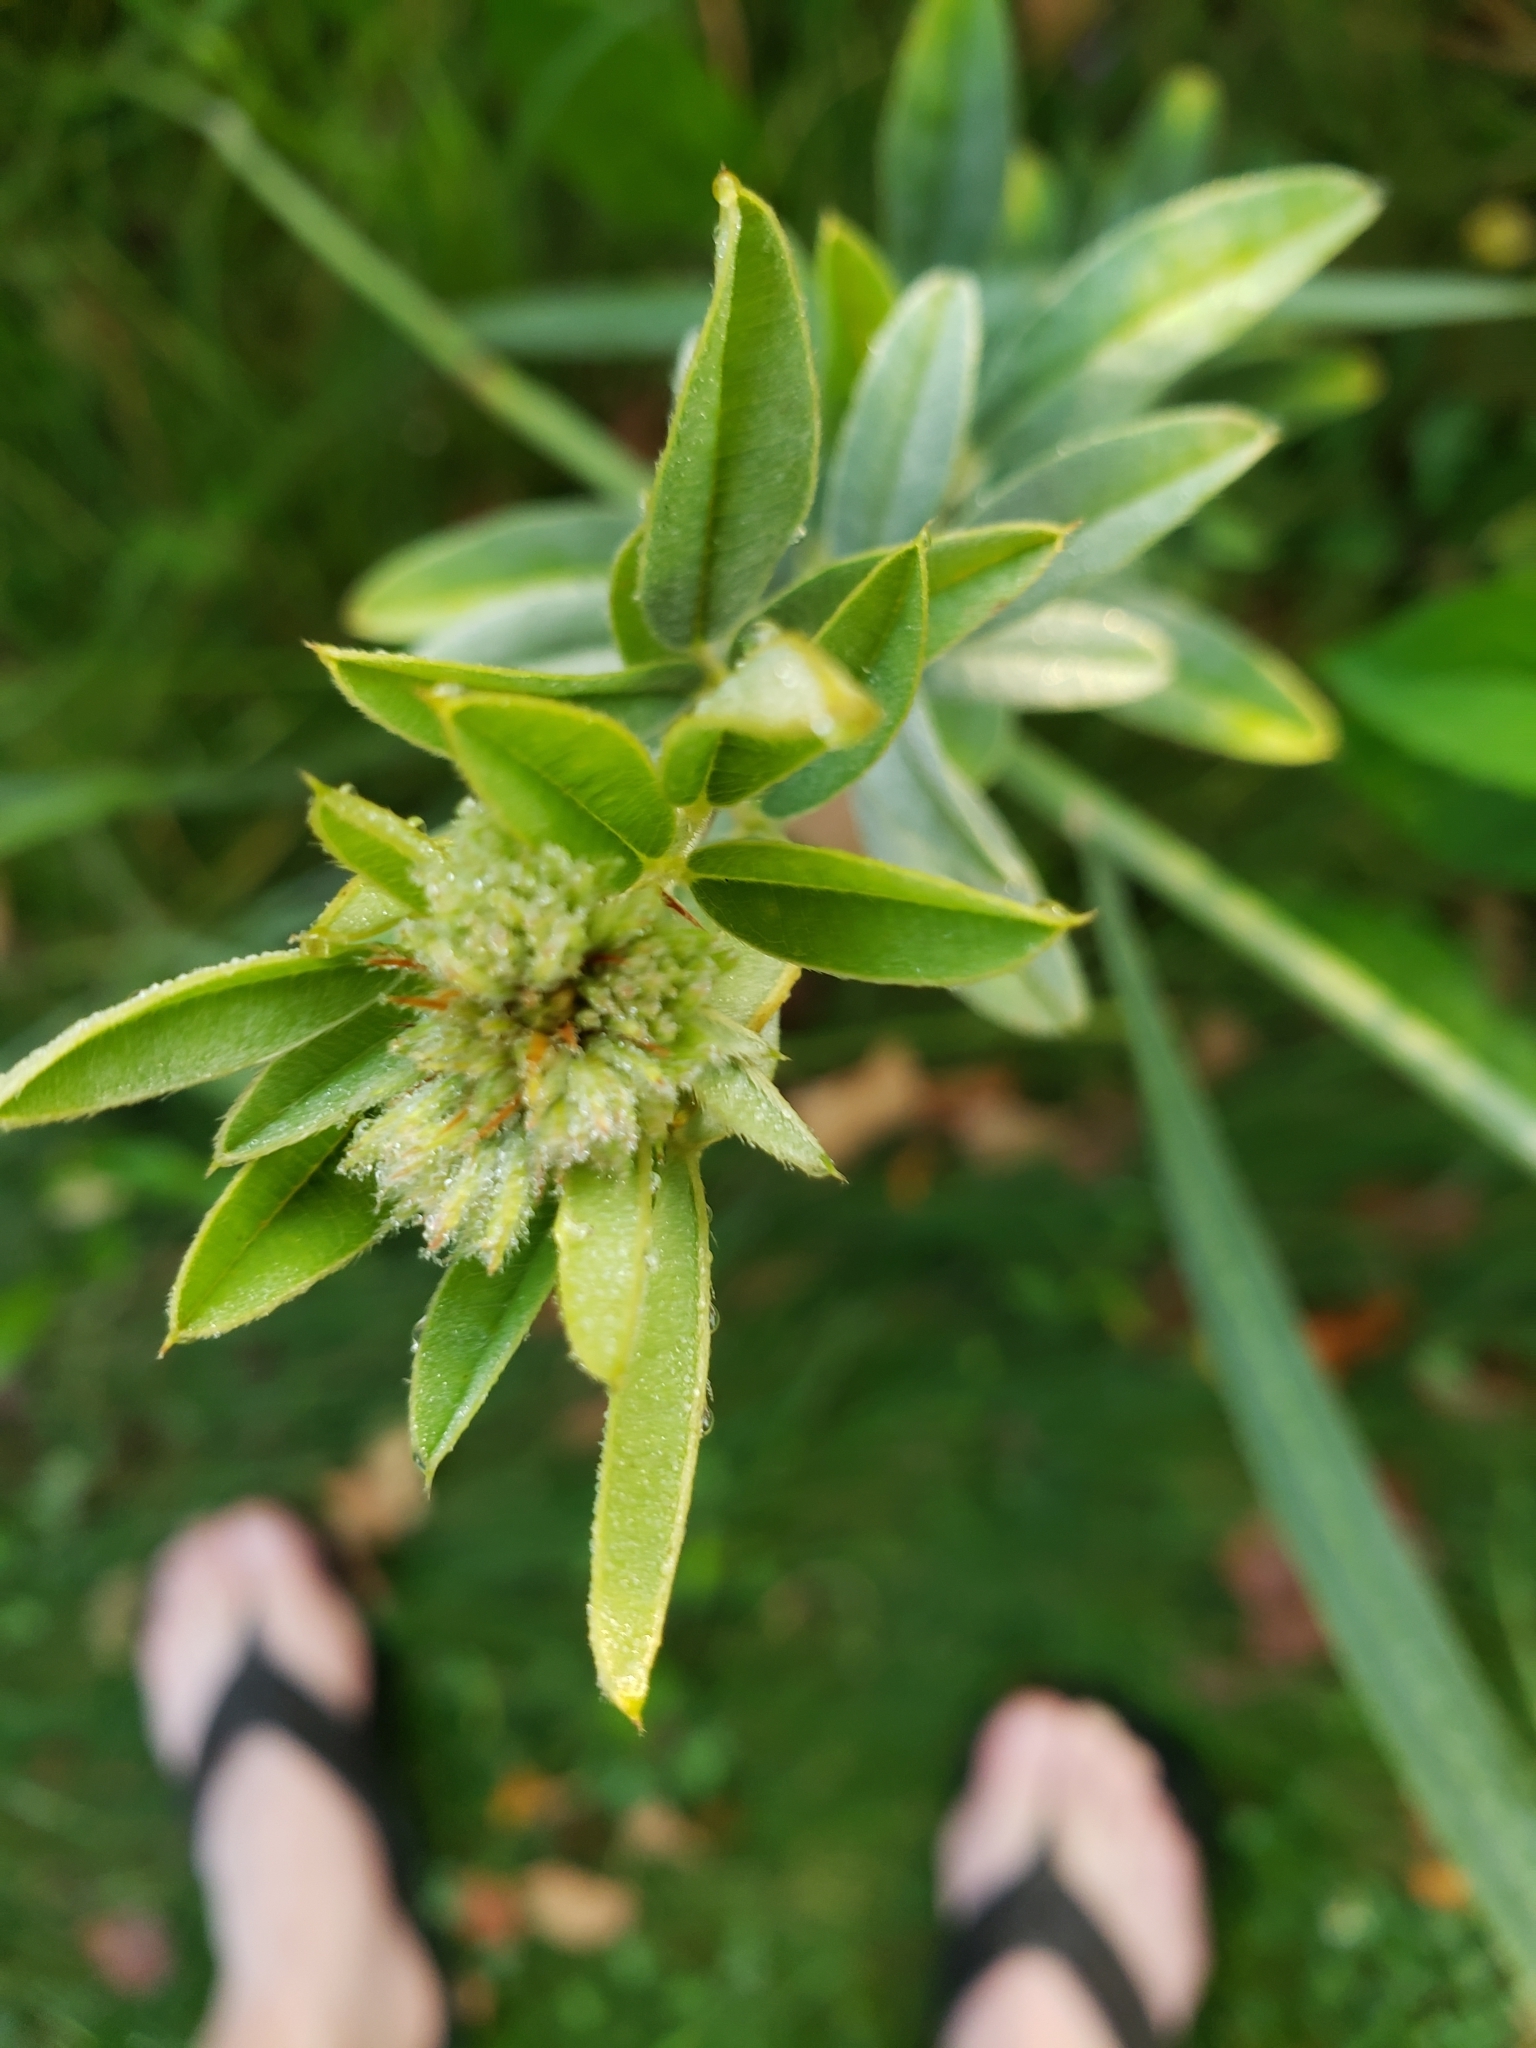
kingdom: Plantae
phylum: Tracheophyta
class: Magnoliopsida
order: Fabales
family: Fabaceae
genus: Lespedeza
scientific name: Lespedeza capitata
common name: Dusty clover
